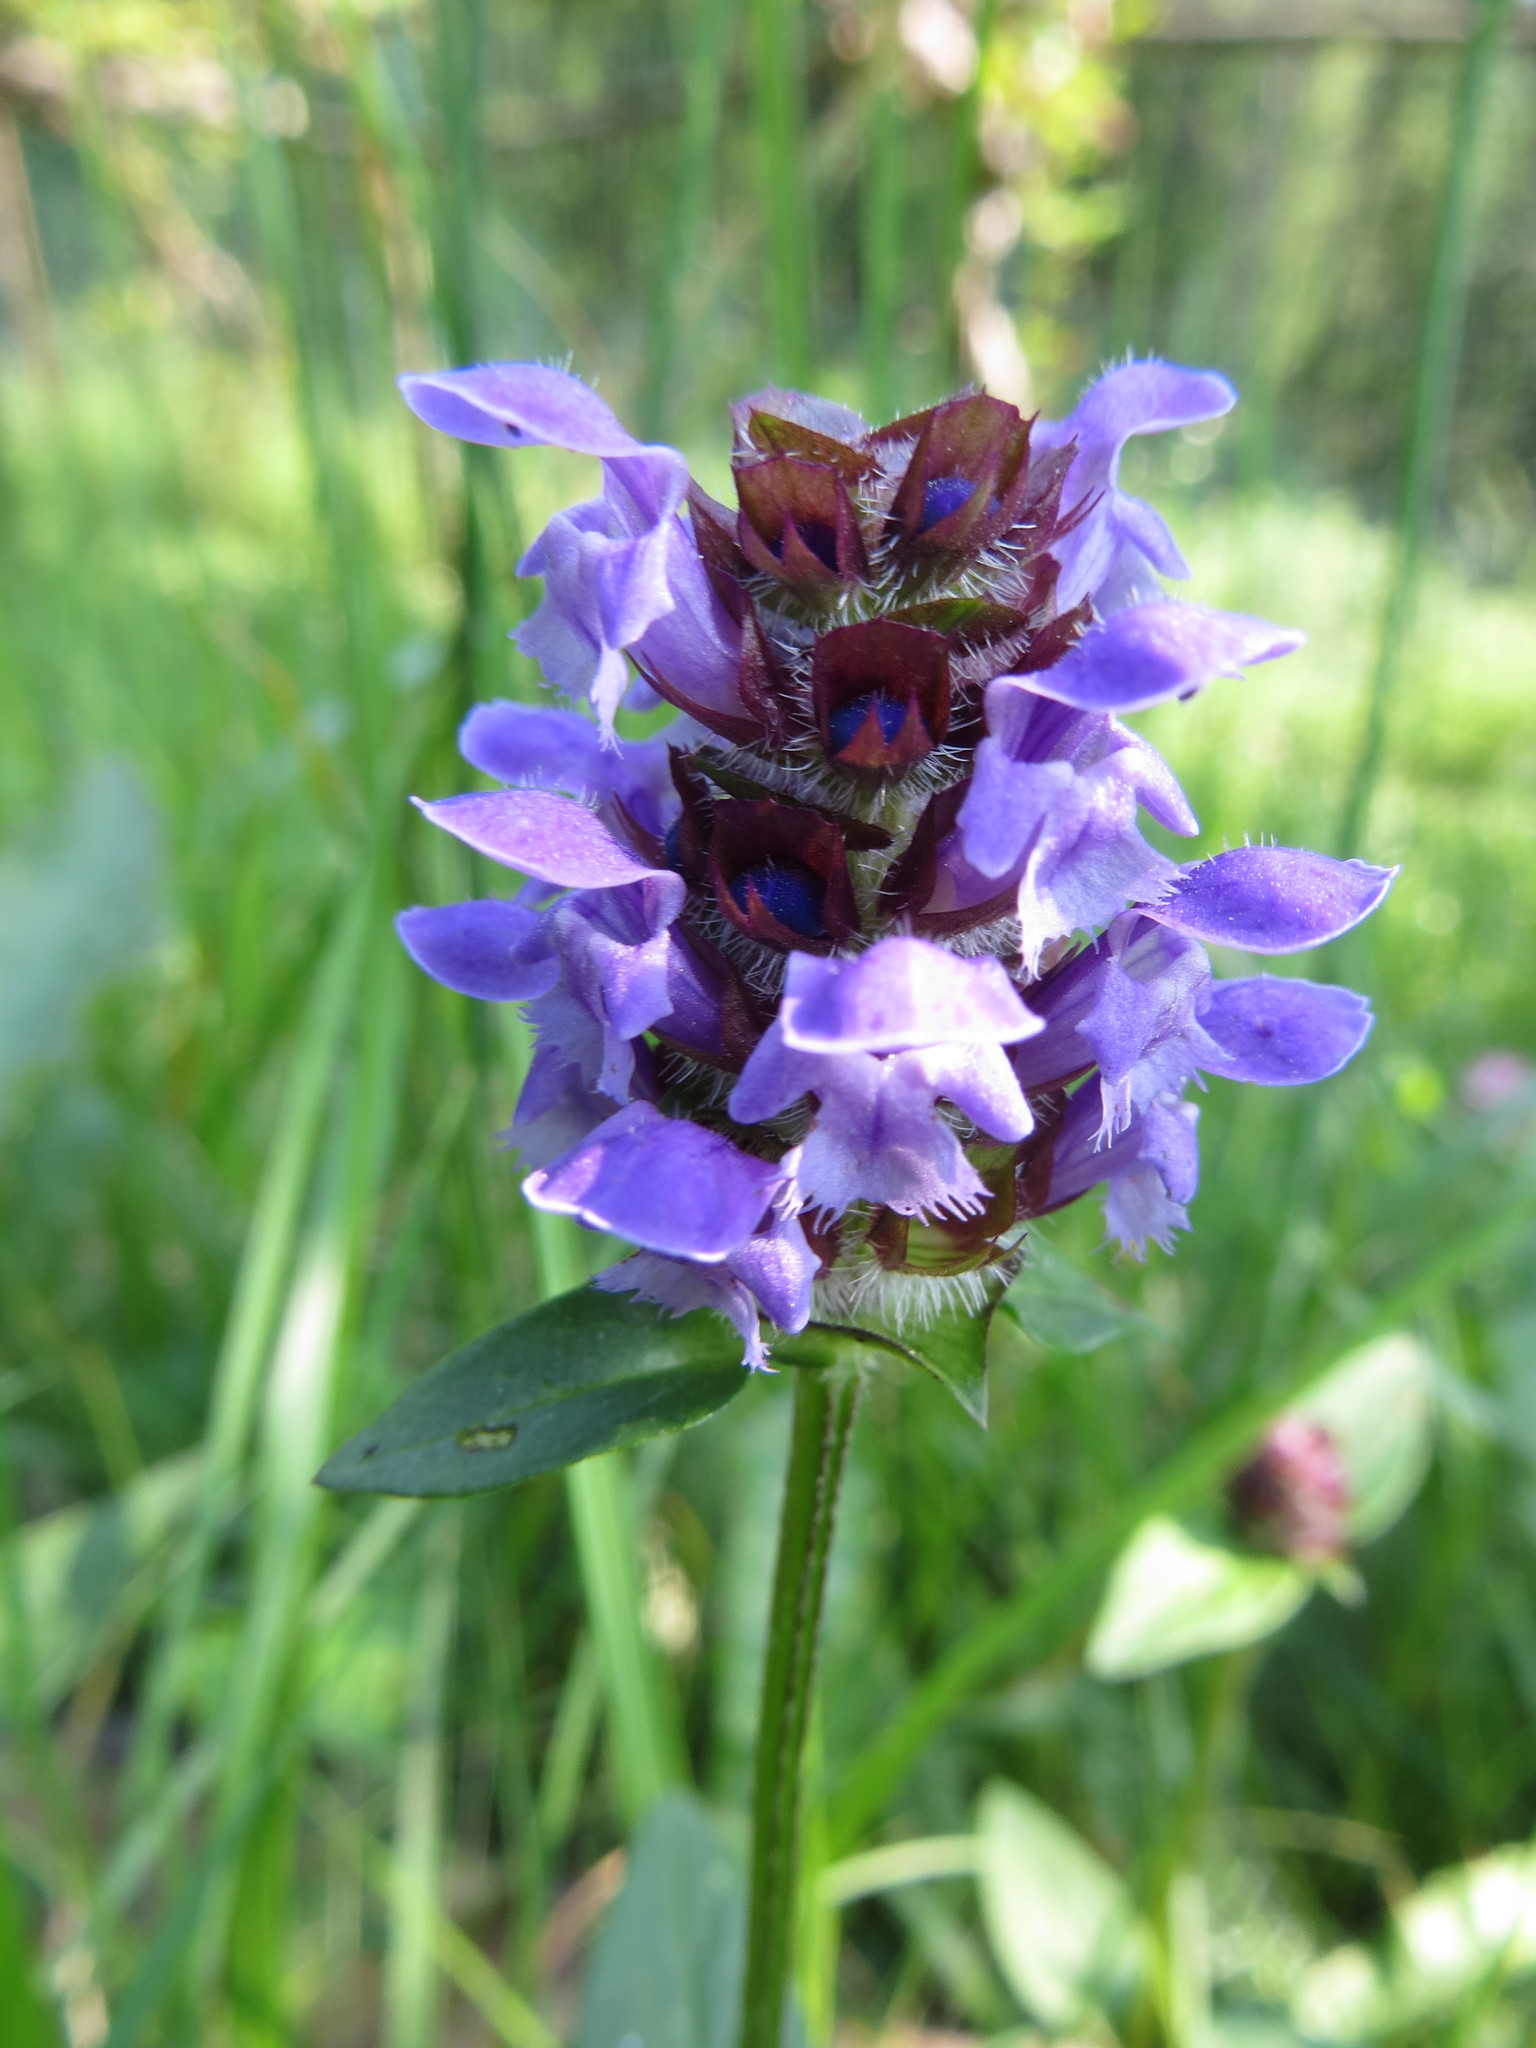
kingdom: Plantae
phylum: Tracheophyta
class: Magnoliopsida
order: Lamiales
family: Lamiaceae
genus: Prunella
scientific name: Prunella vulgaris
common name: Heal-all
